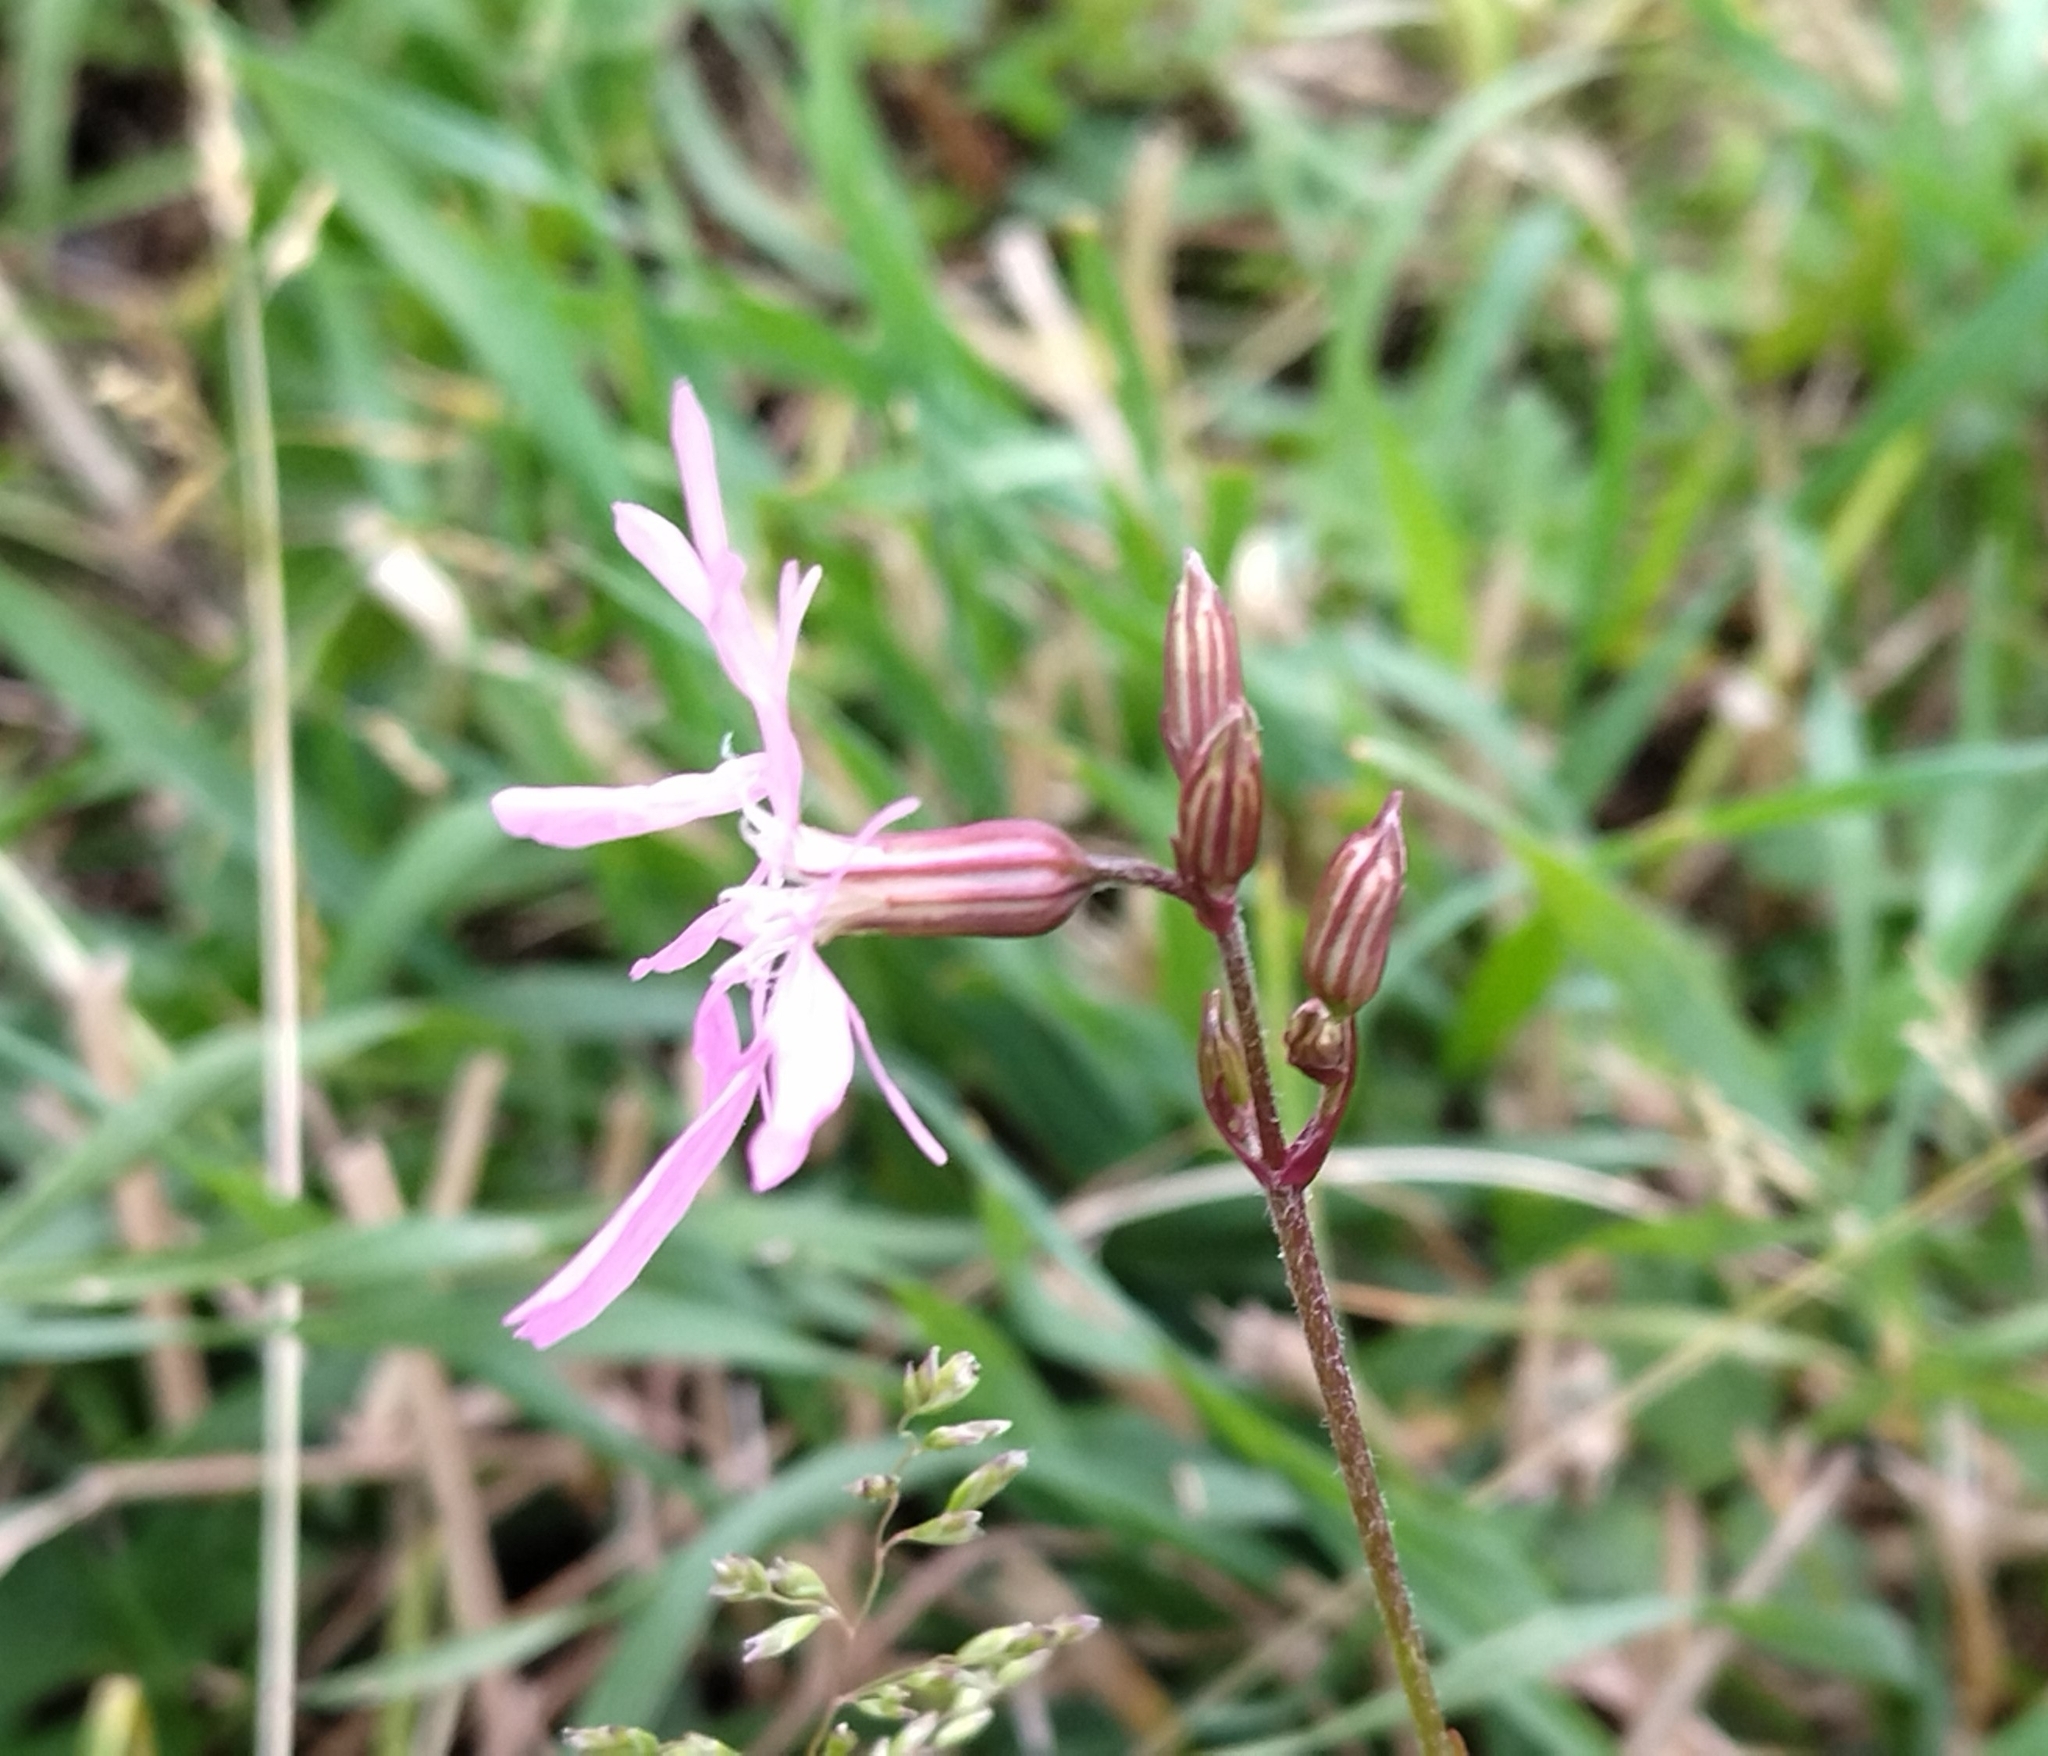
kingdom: Plantae
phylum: Tracheophyta
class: Magnoliopsida
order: Caryophyllales
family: Caryophyllaceae
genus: Silene
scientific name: Silene flos-cuculi
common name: Ragged-robin
